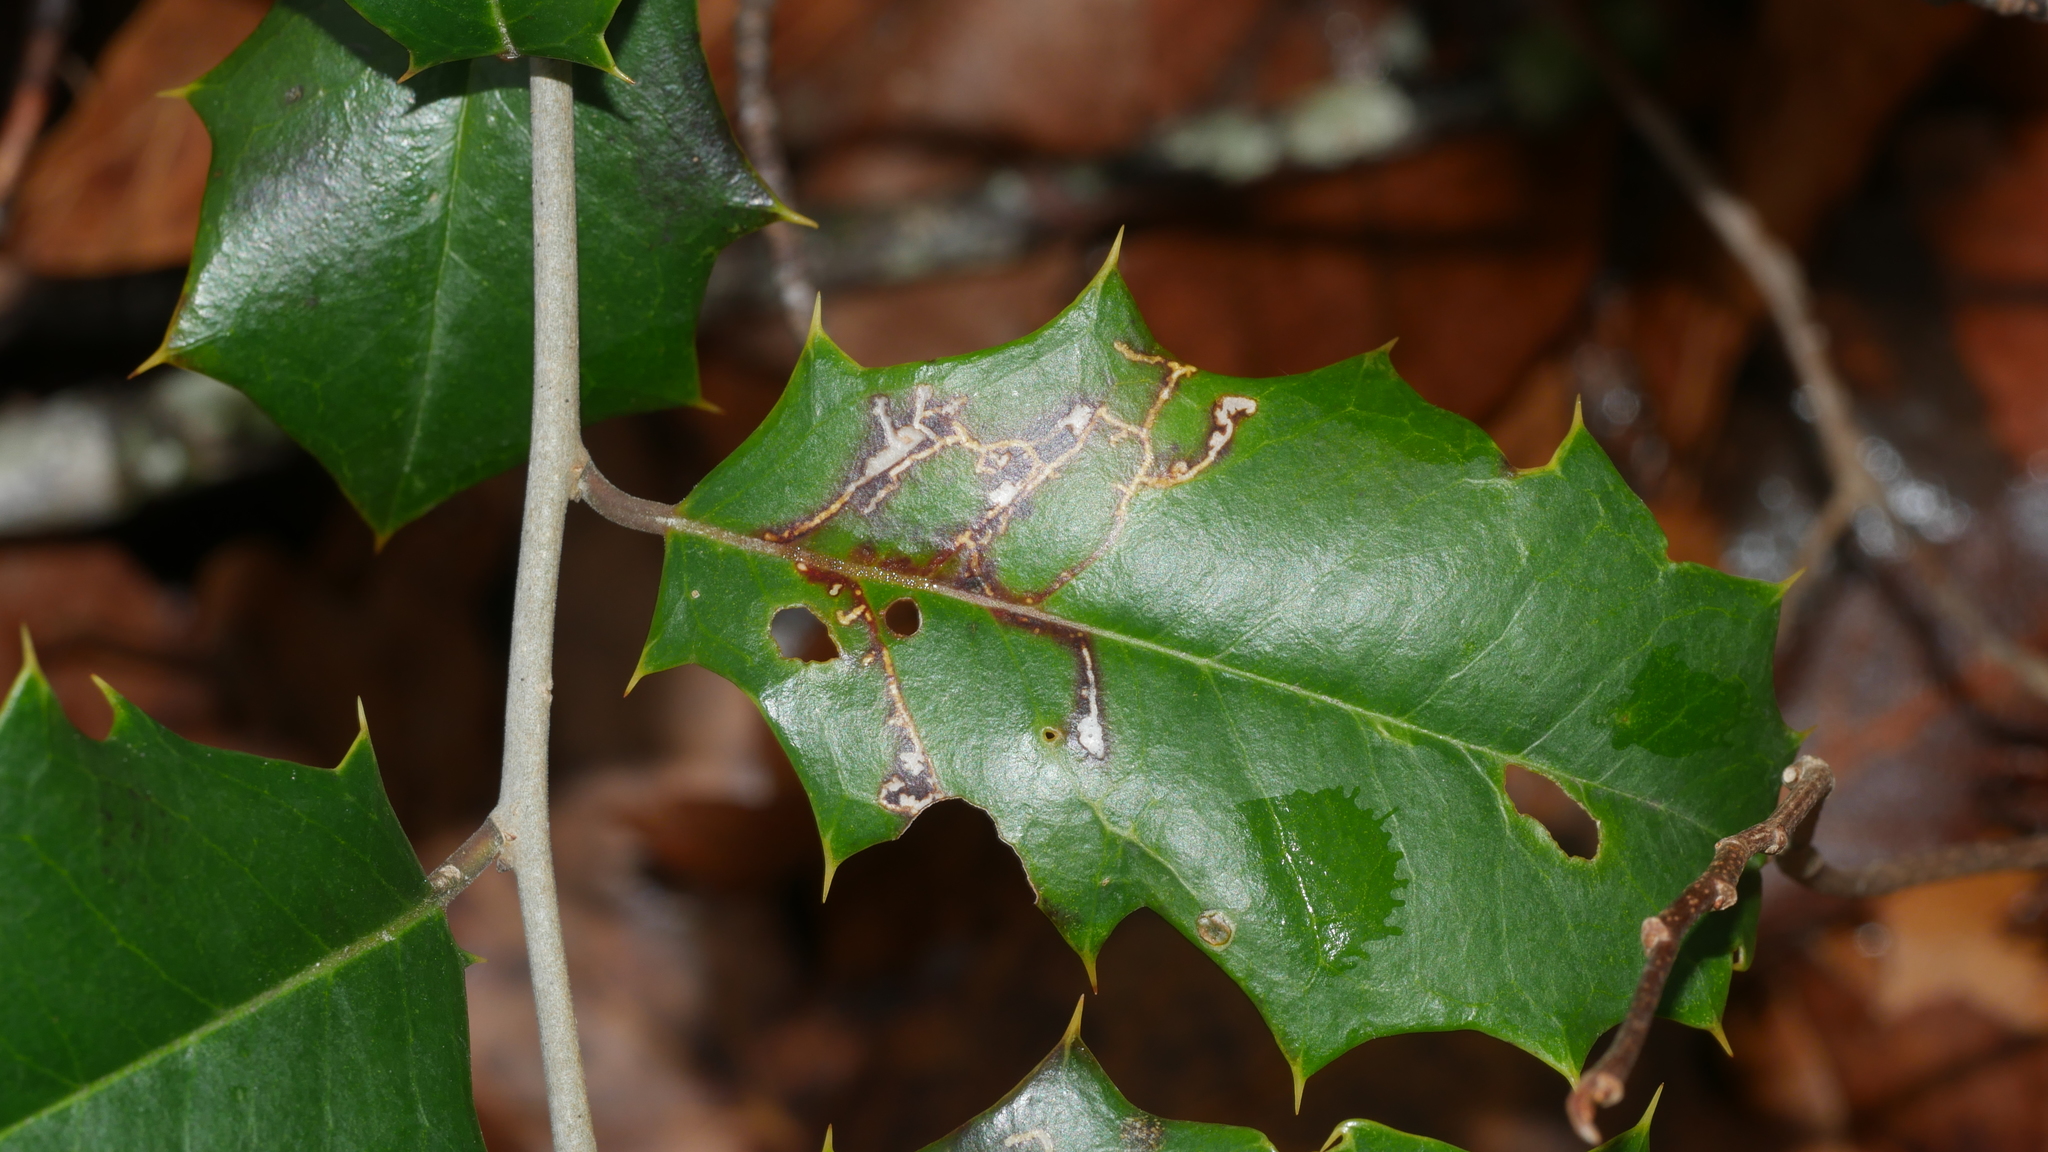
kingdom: Animalia
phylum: Arthropoda
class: Insecta
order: Lepidoptera
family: Tortricidae
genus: Rhopobota
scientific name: Rhopobota
